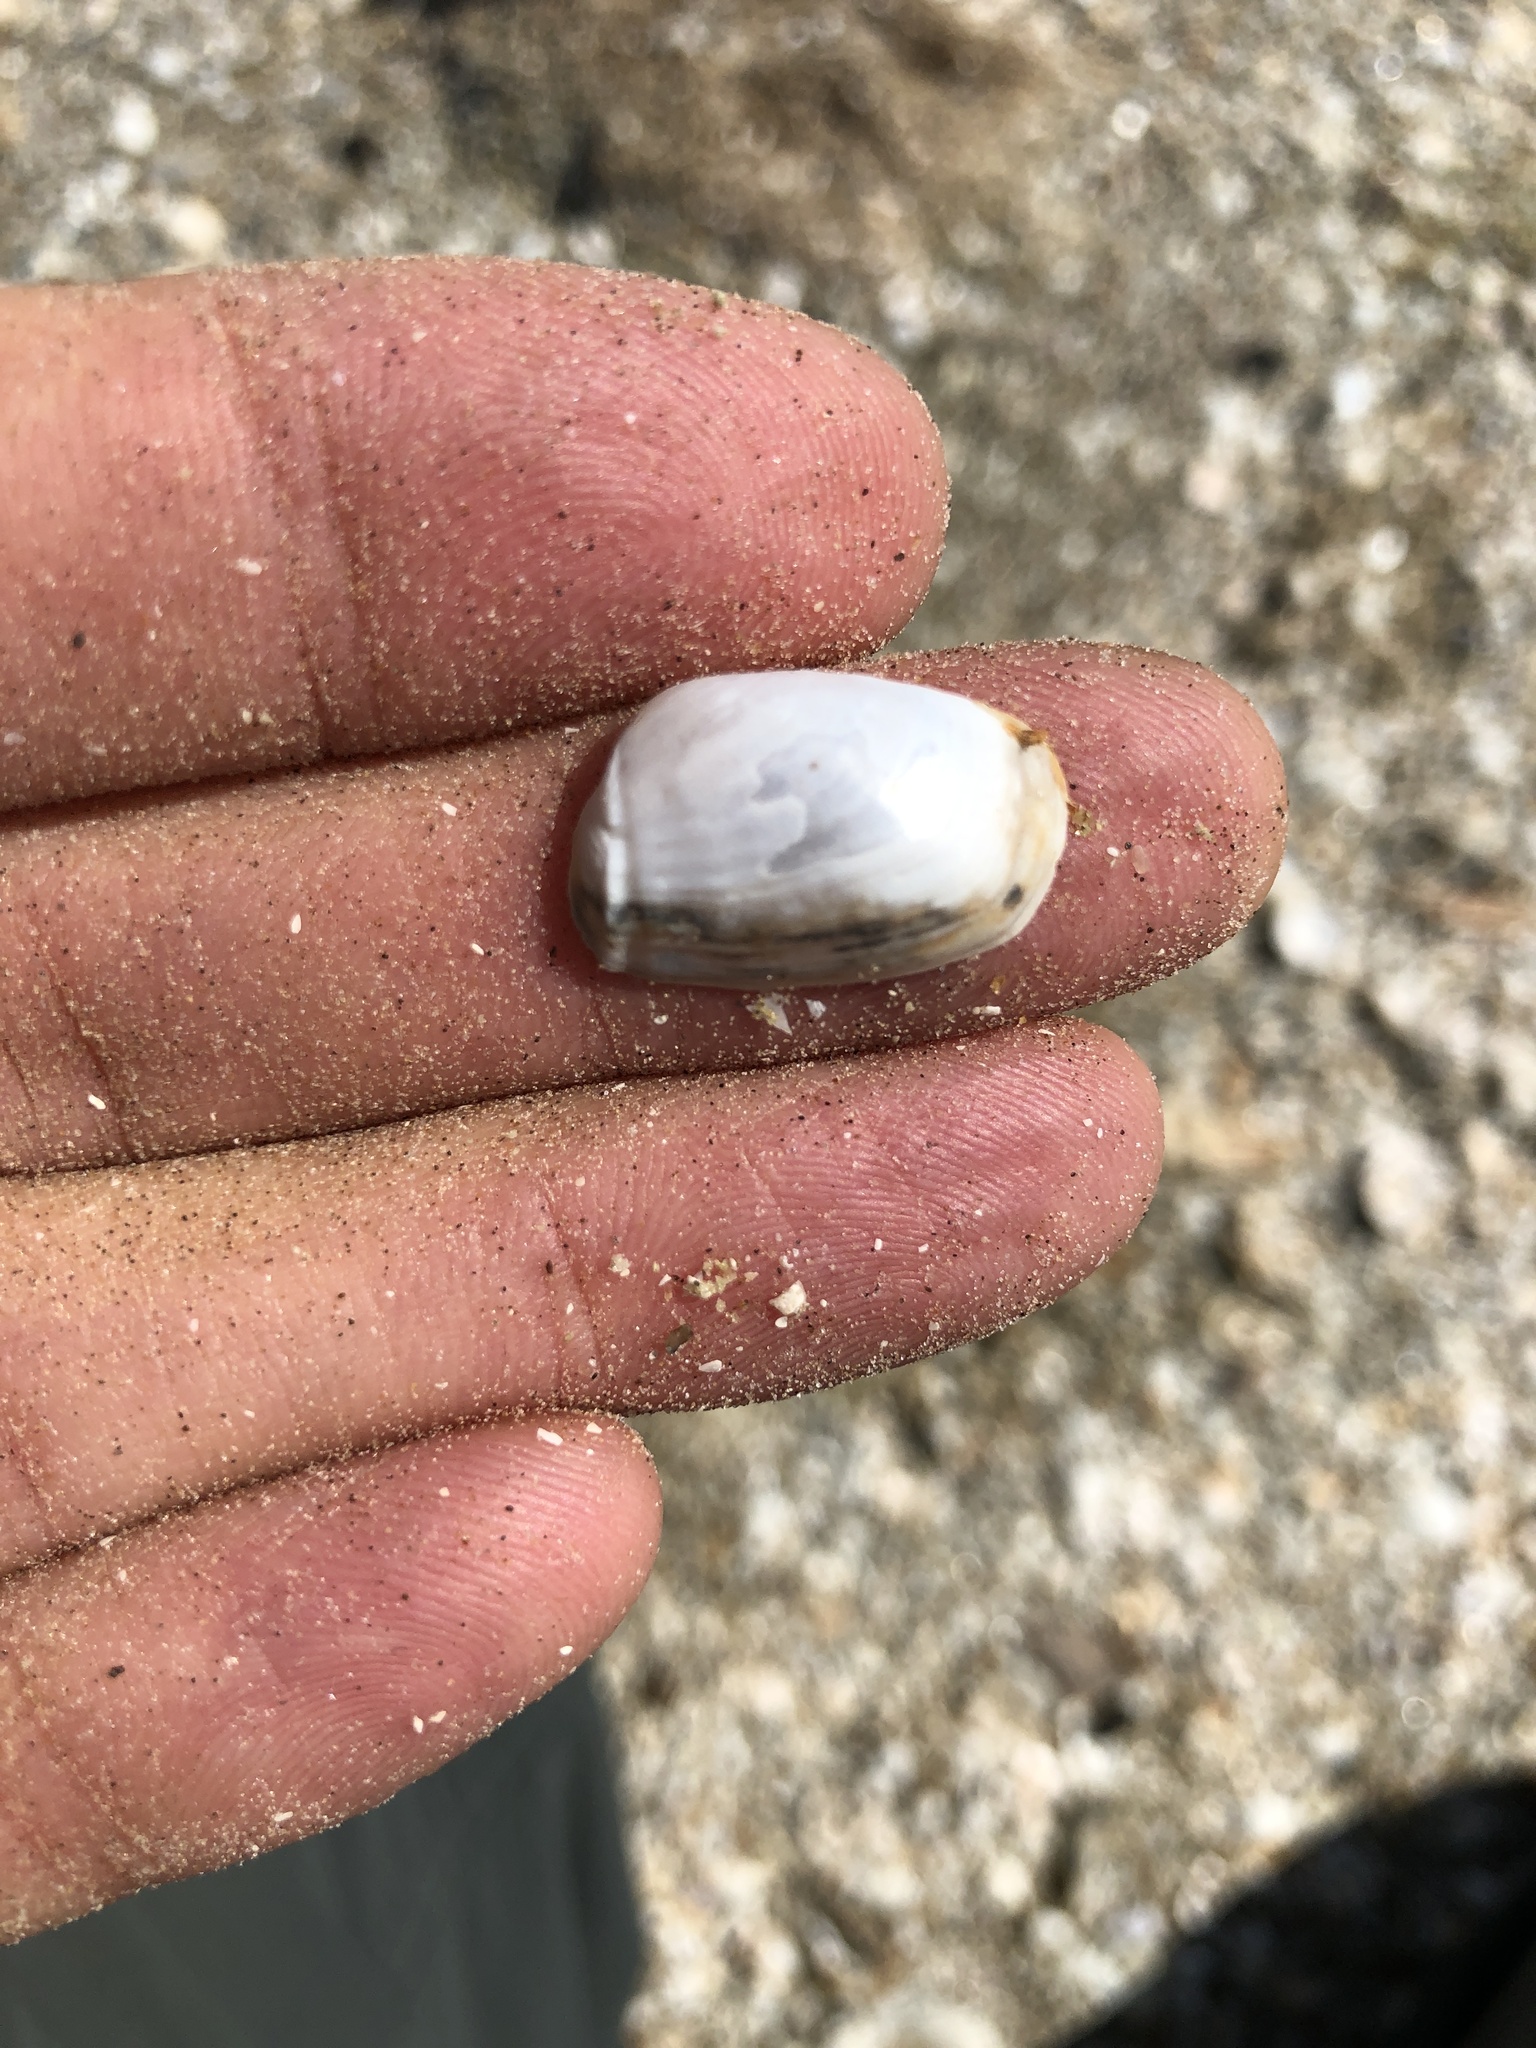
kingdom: Animalia
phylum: Mollusca
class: Bivalvia
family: Periplomatidae
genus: Periploma
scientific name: Periploma inequale
